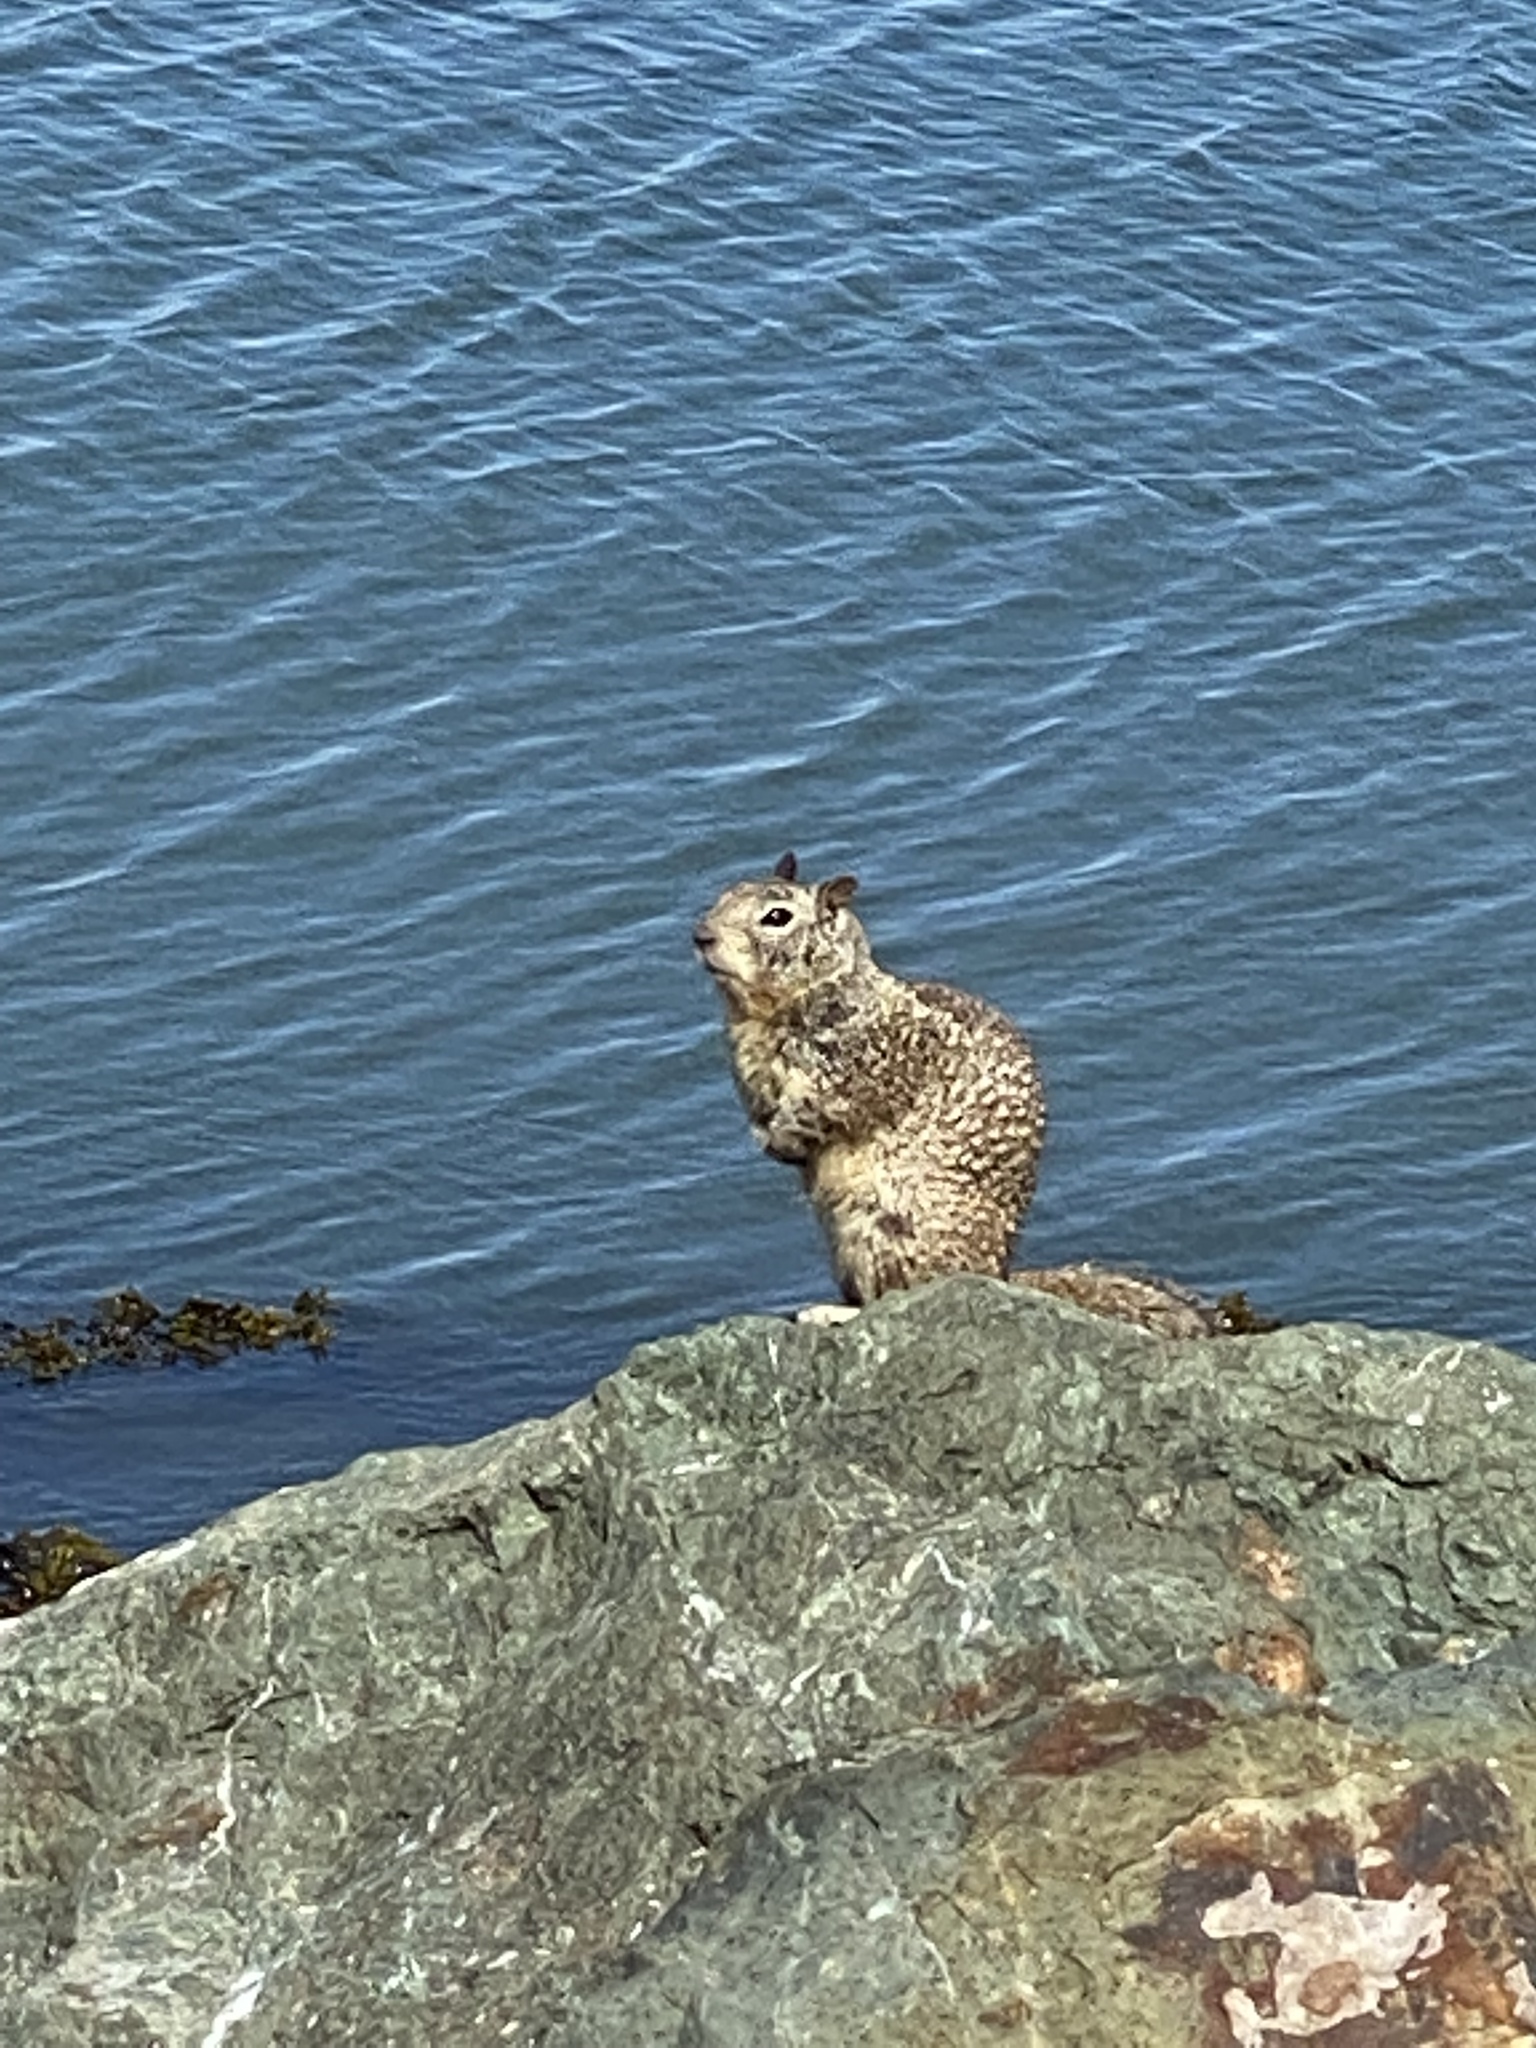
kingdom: Animalia
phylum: Chordata
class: Mammalia
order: Rodentia
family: Sciuridae
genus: Otospermophilus
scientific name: Otospermophilus beecheyi
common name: California ground squirrel
